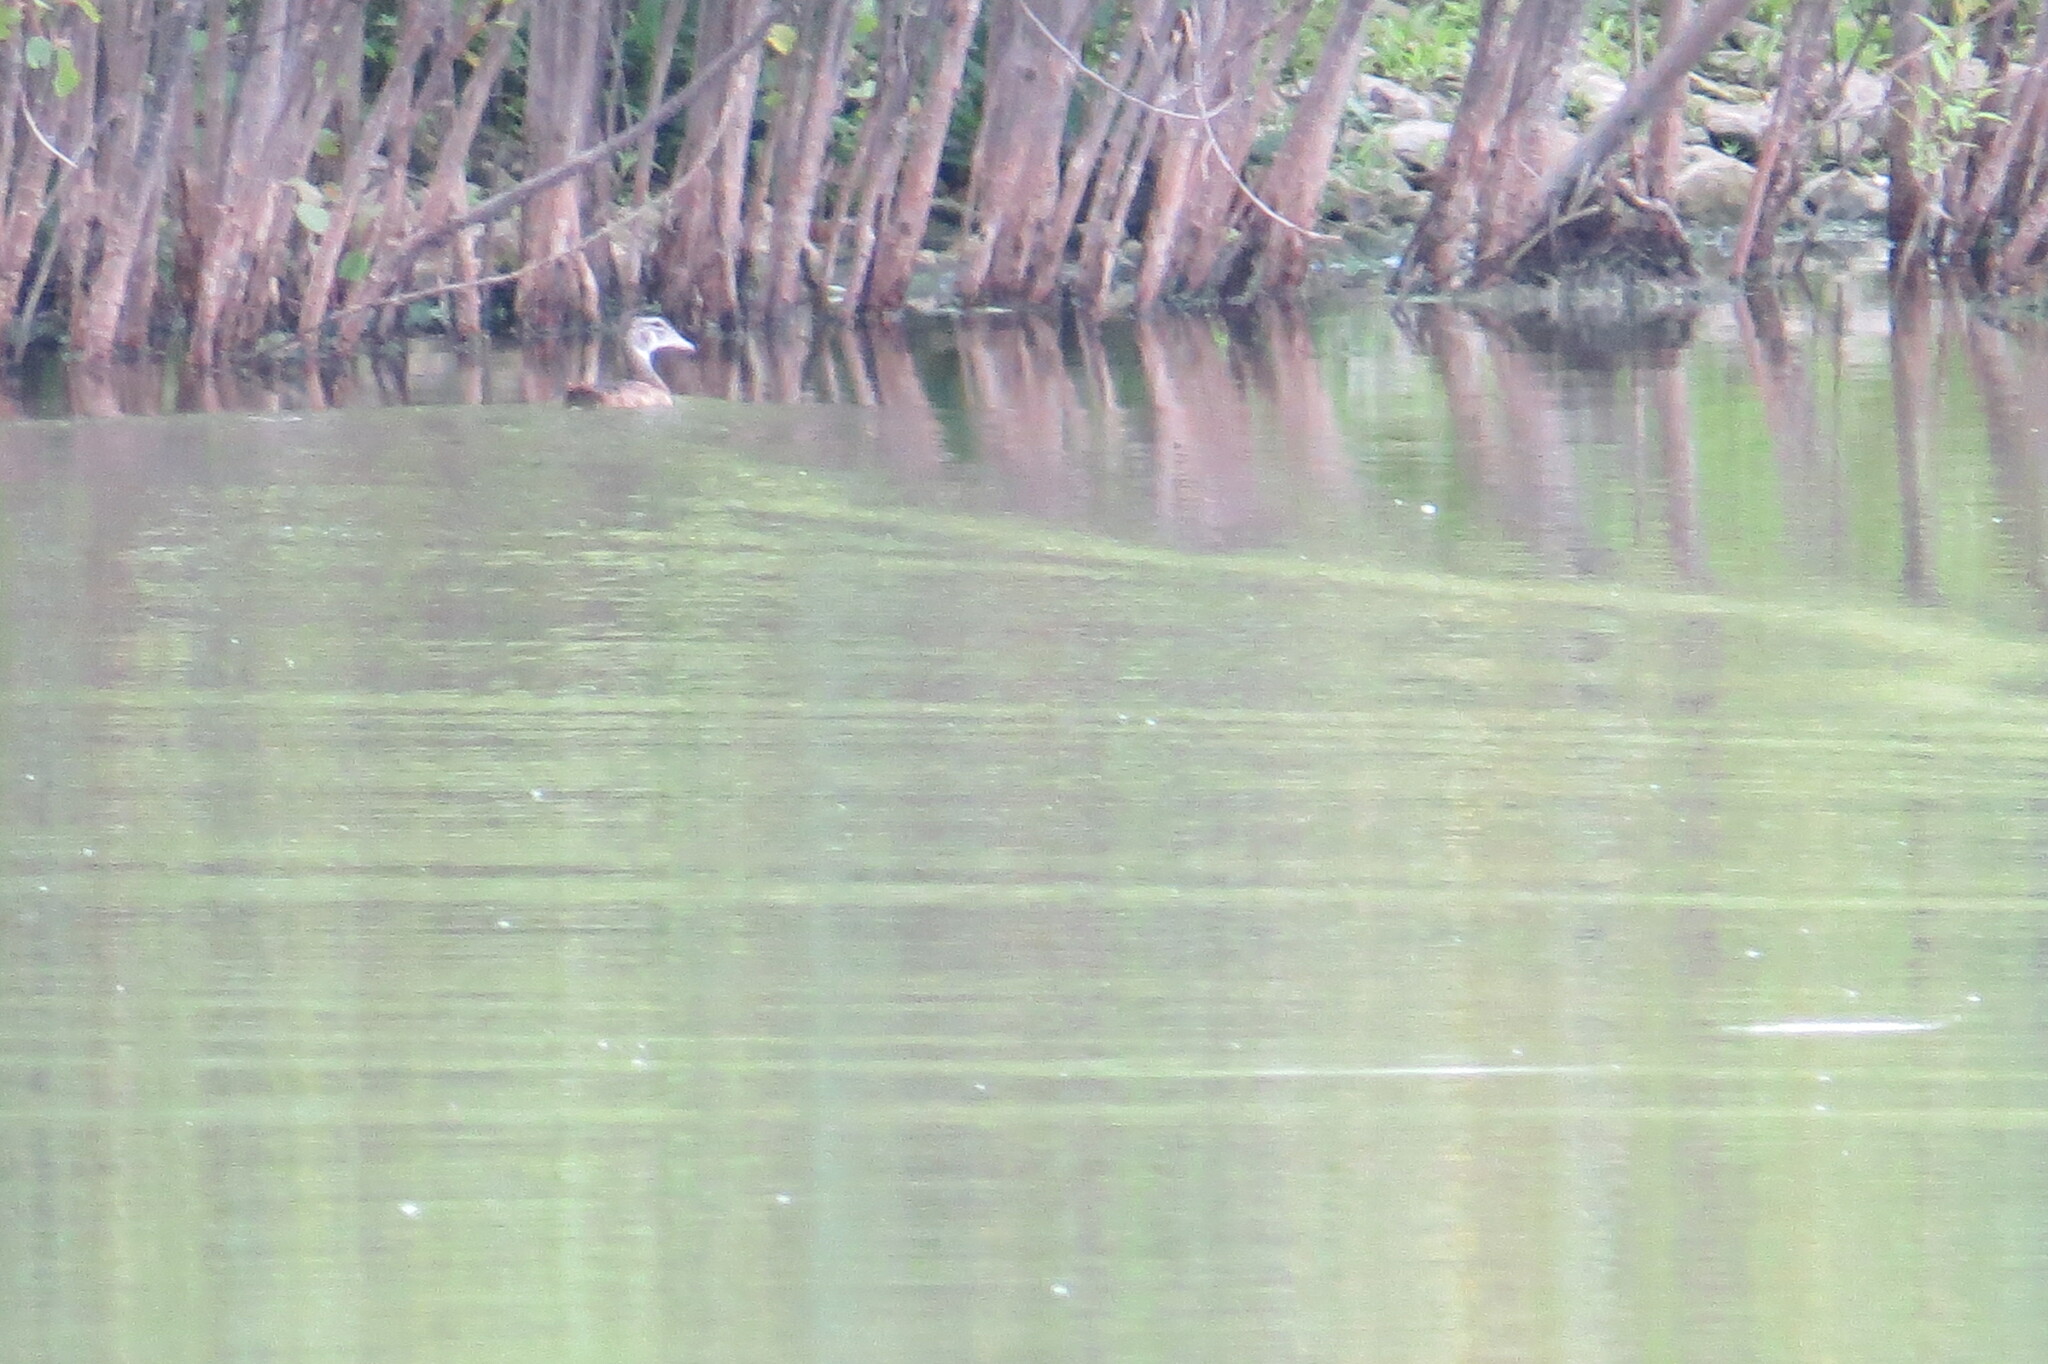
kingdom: Animalia
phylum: Chordata
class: Aves
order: Anseriformes
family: Anatidae
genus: Aix
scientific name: Aix sponsa
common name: Wood duck
